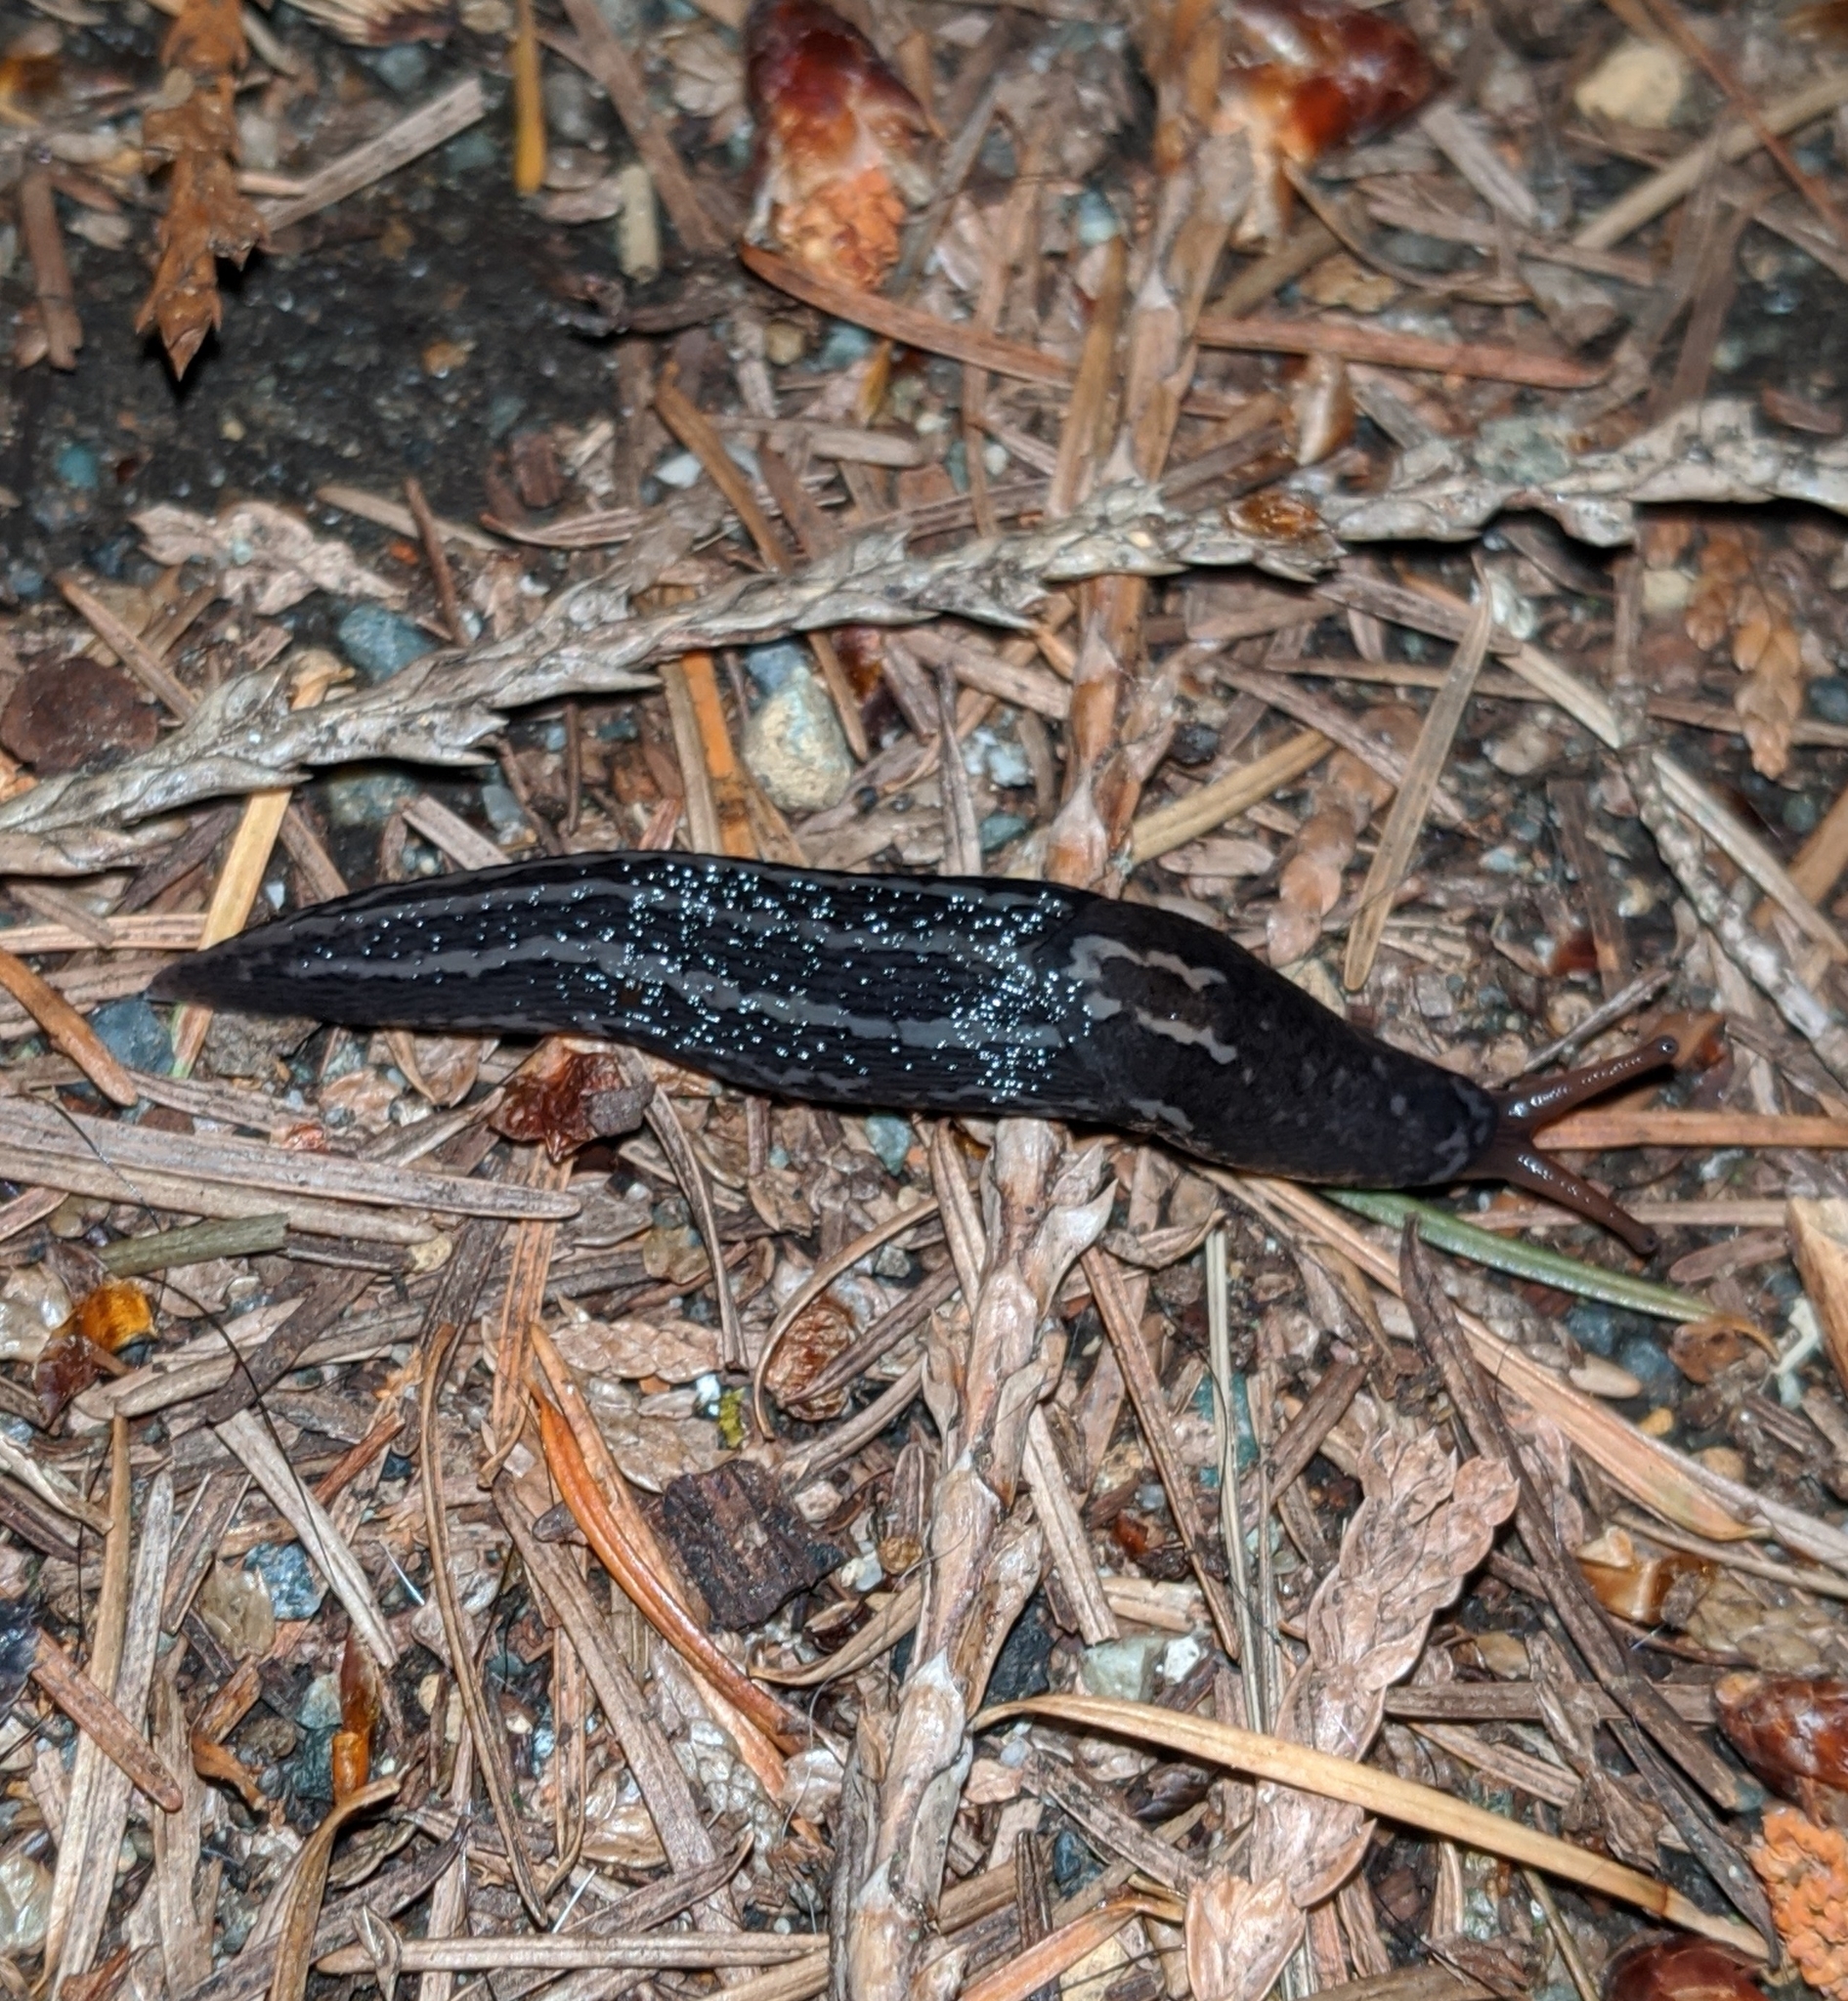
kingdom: Animalia
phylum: Mollusca
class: Gastropoda
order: Stylommatophora
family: Limacidae
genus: Limax
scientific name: Limax maximus
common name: Great grey slug
